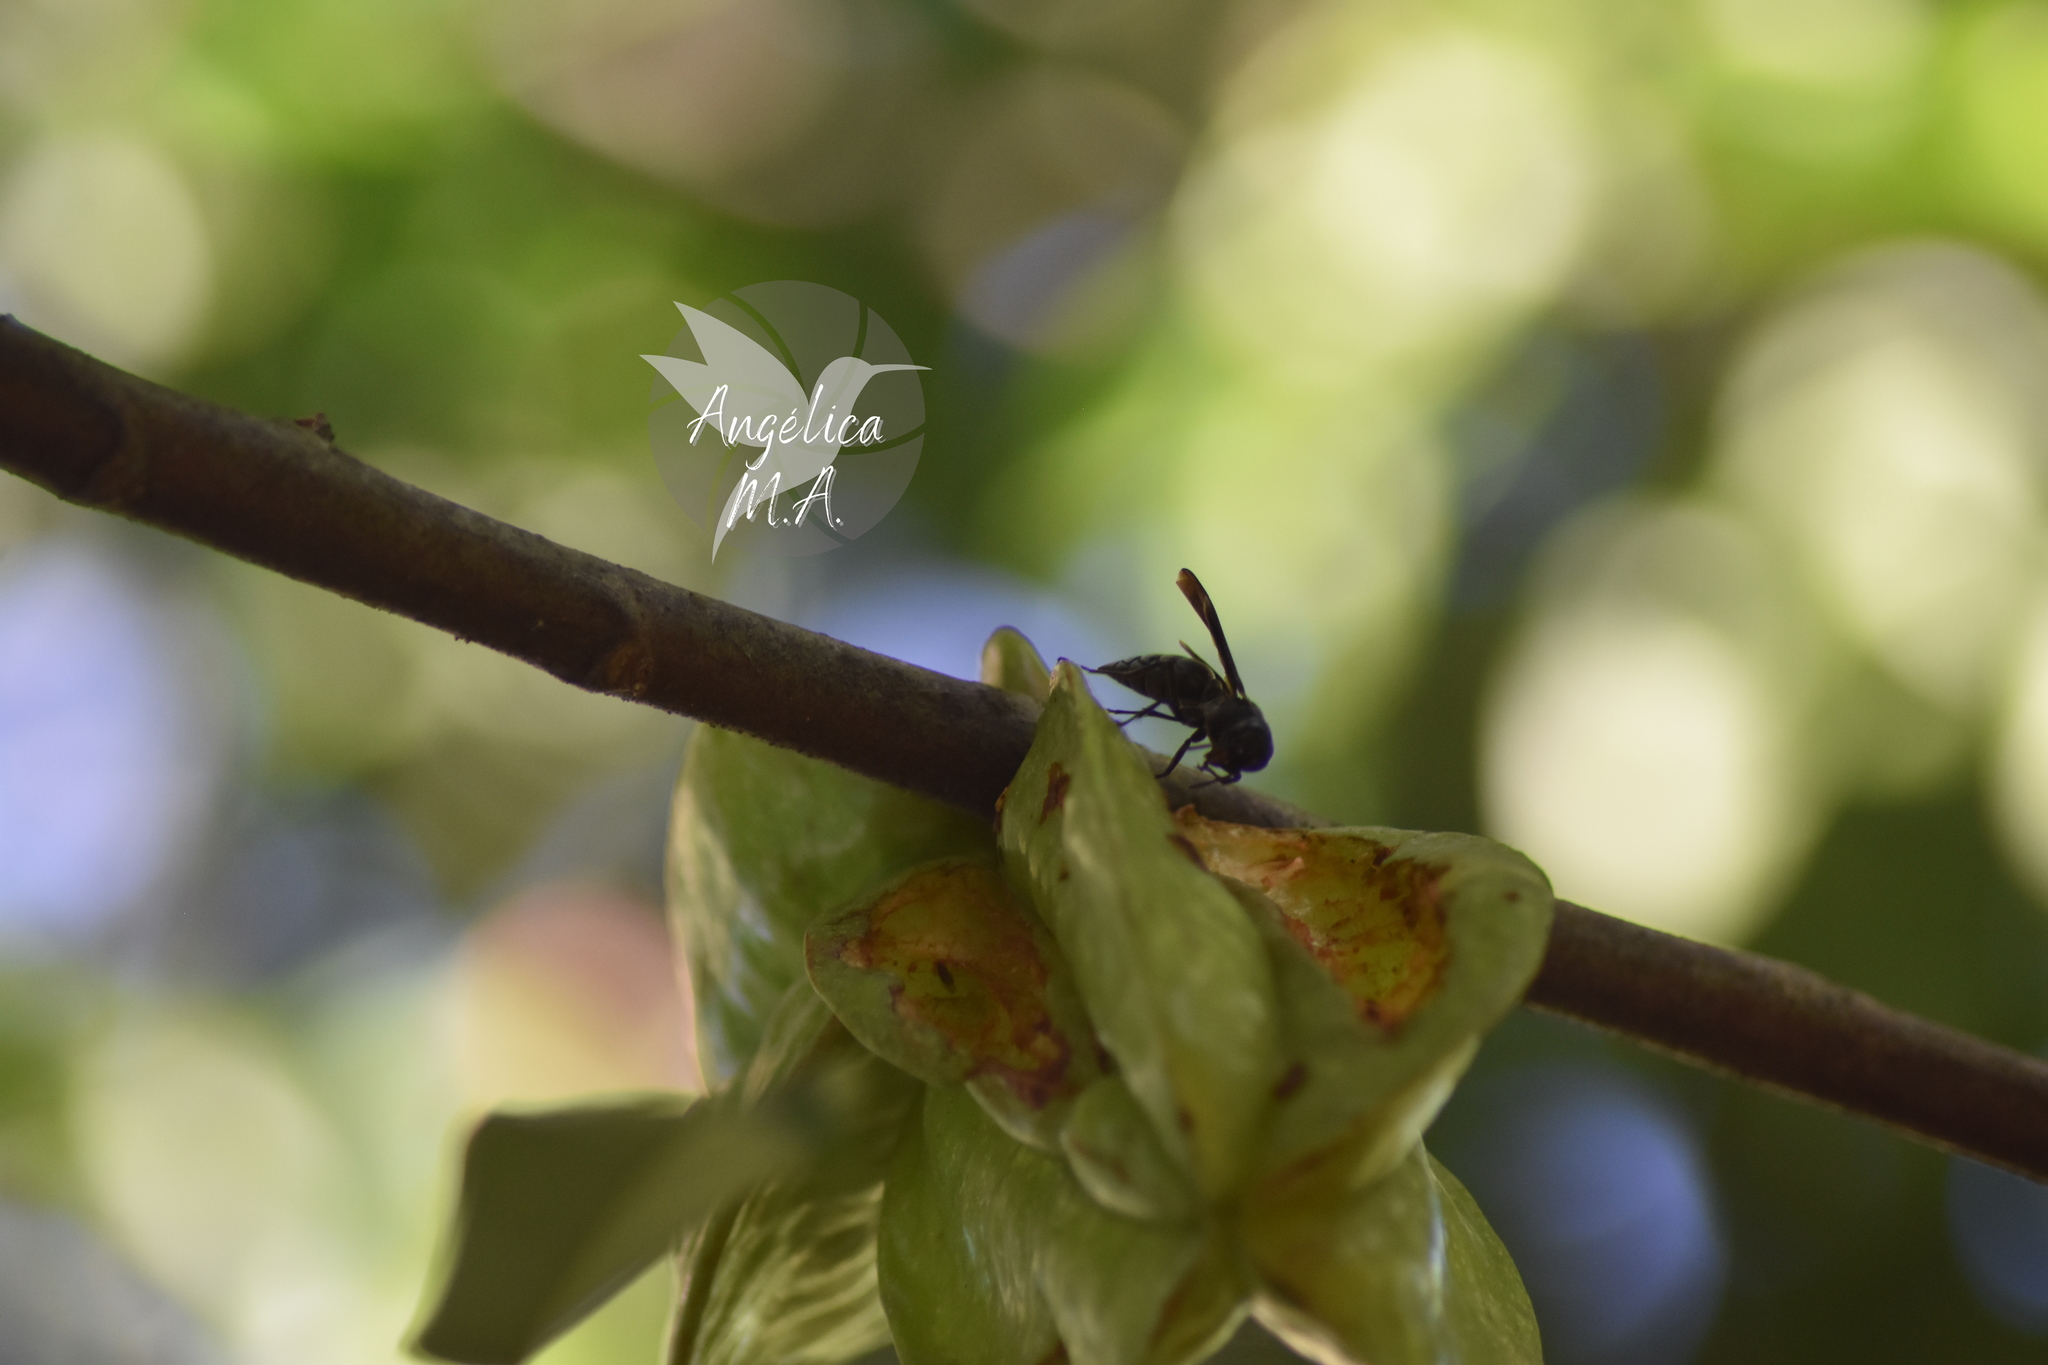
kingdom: Animalia
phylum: Arthropoda
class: Insecta
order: Hymenoptera
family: Vespidae
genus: Synoeca
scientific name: Synoeca septentrionalis
